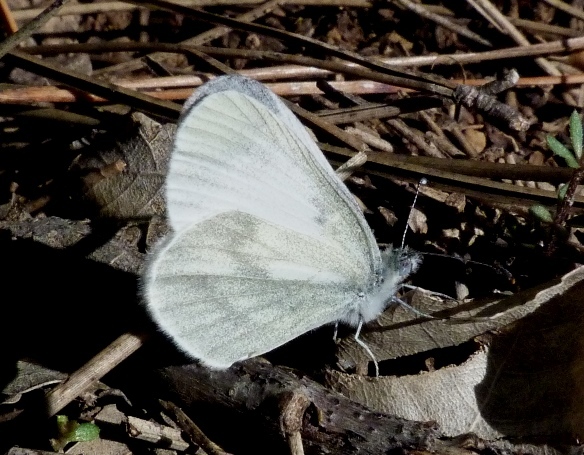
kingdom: Animalia
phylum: Arthropoda
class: Insecta
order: Lepidoptera
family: Pieridae
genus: Leptidea
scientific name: Leptidea sinapis
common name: Wood white
